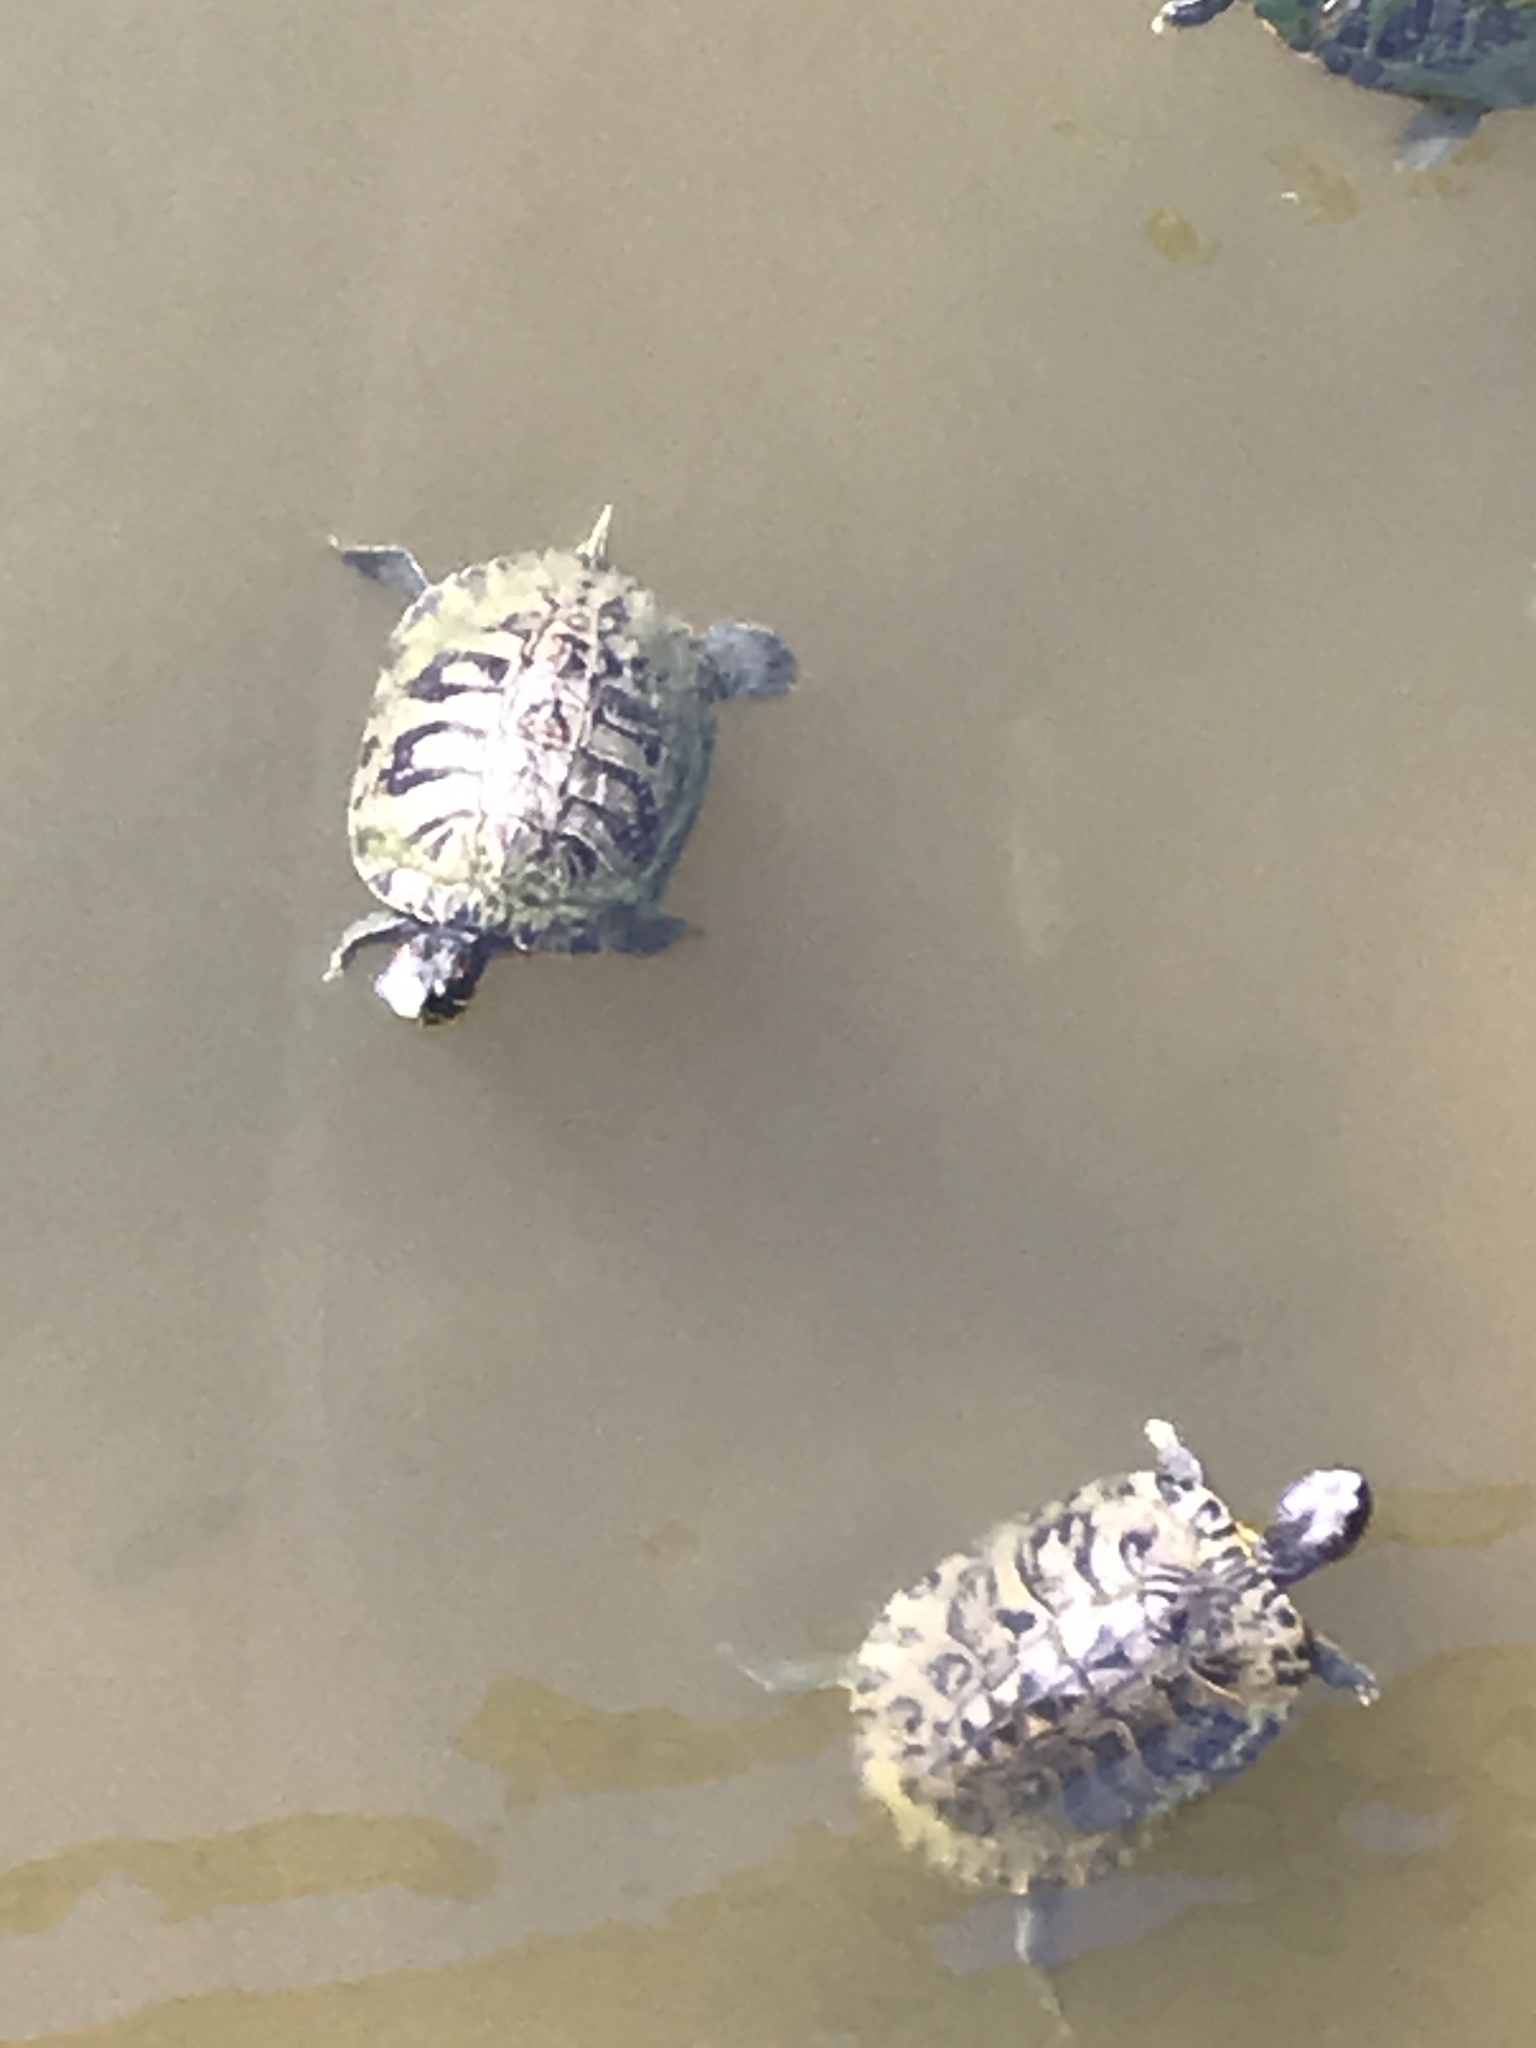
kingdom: Animalia
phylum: Chordata
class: Testudines
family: Emydidae
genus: Trachemys
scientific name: Trachemys scripta
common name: Slider
